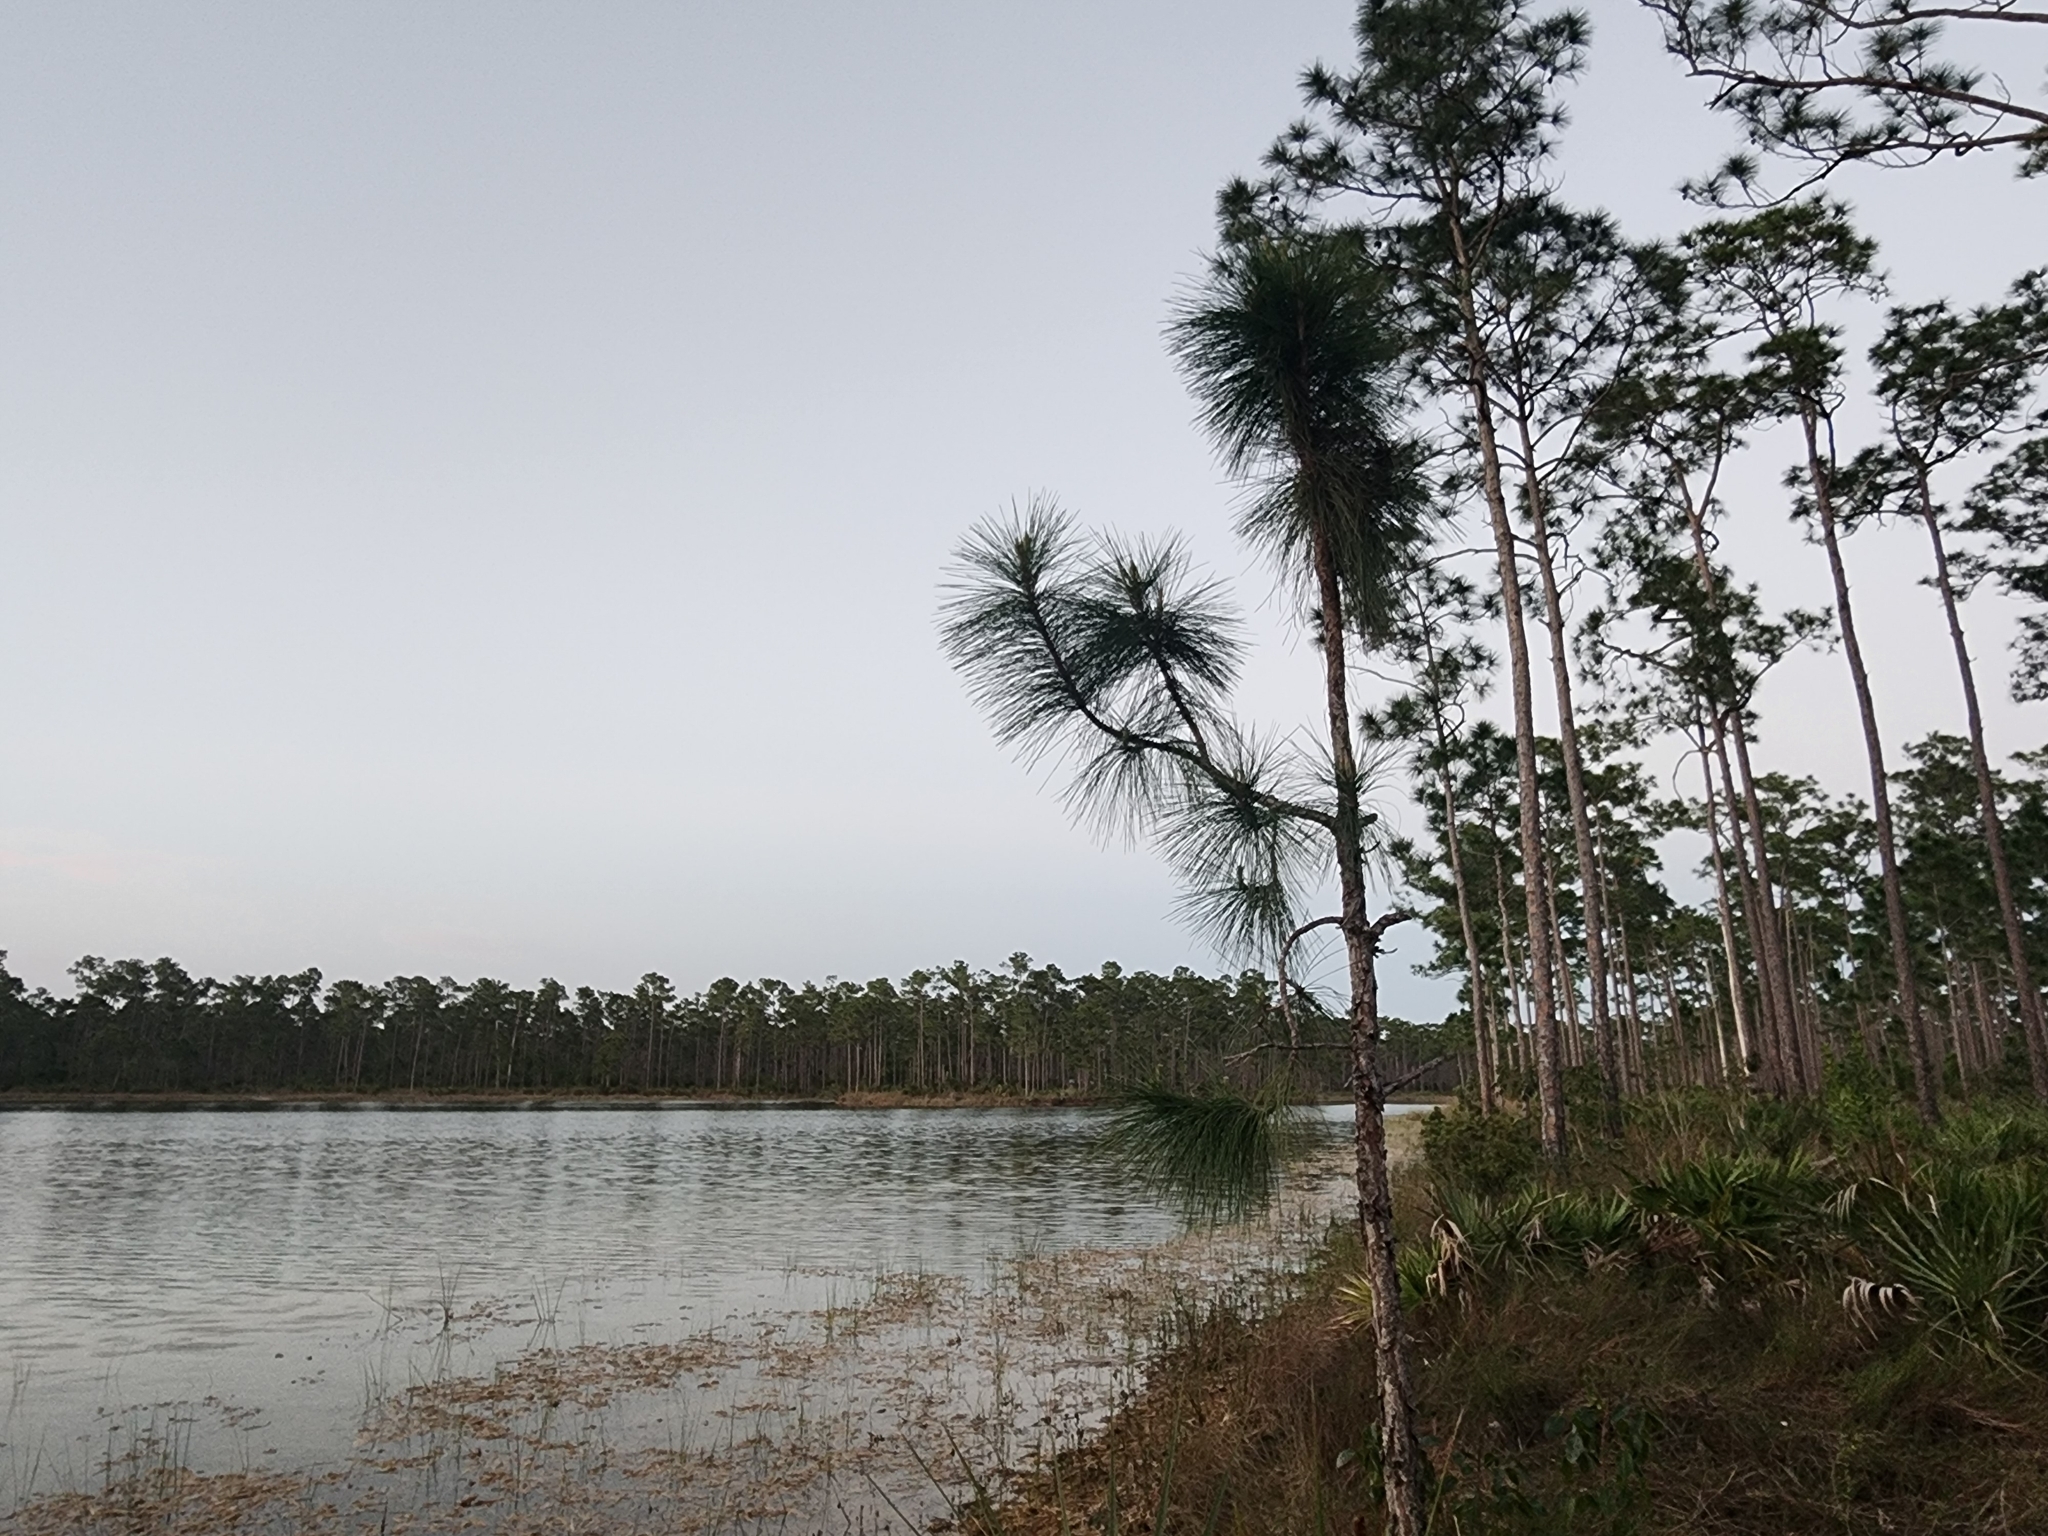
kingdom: Plantae
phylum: Tracheophyta
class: Pinopsida
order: Pinales
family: Pinaceae
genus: Pinus
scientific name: Pinus elliottii
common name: Slash pine
